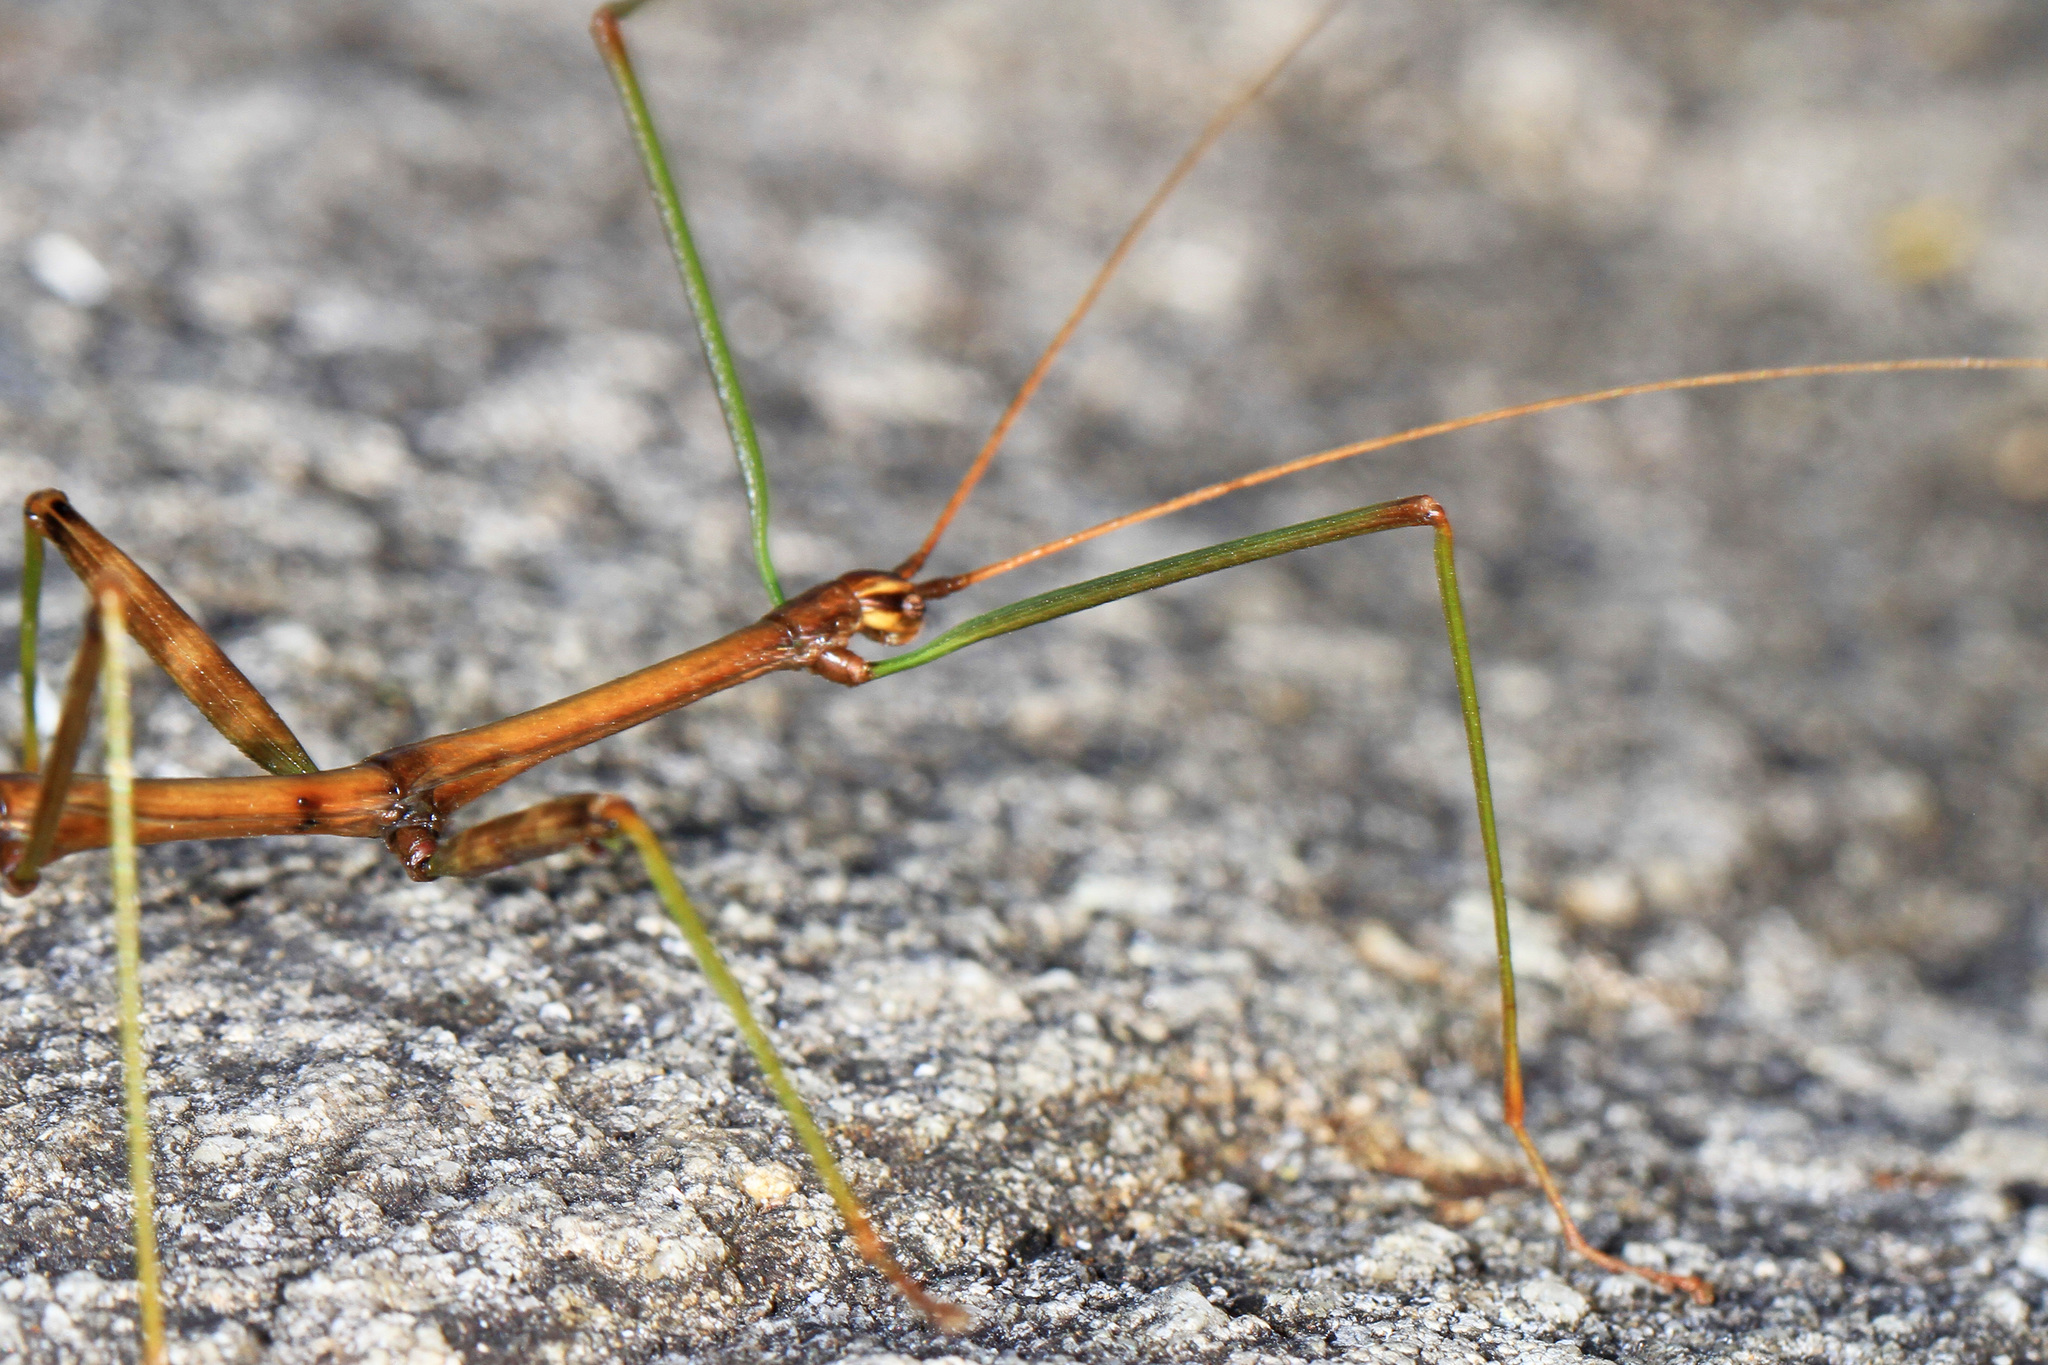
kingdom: Animalia
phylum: Arthropoda
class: Insecta
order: Phasmida
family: Diapheromeridae
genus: Diapheromera
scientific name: Diapheromera femorata
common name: Common american walkingstick
